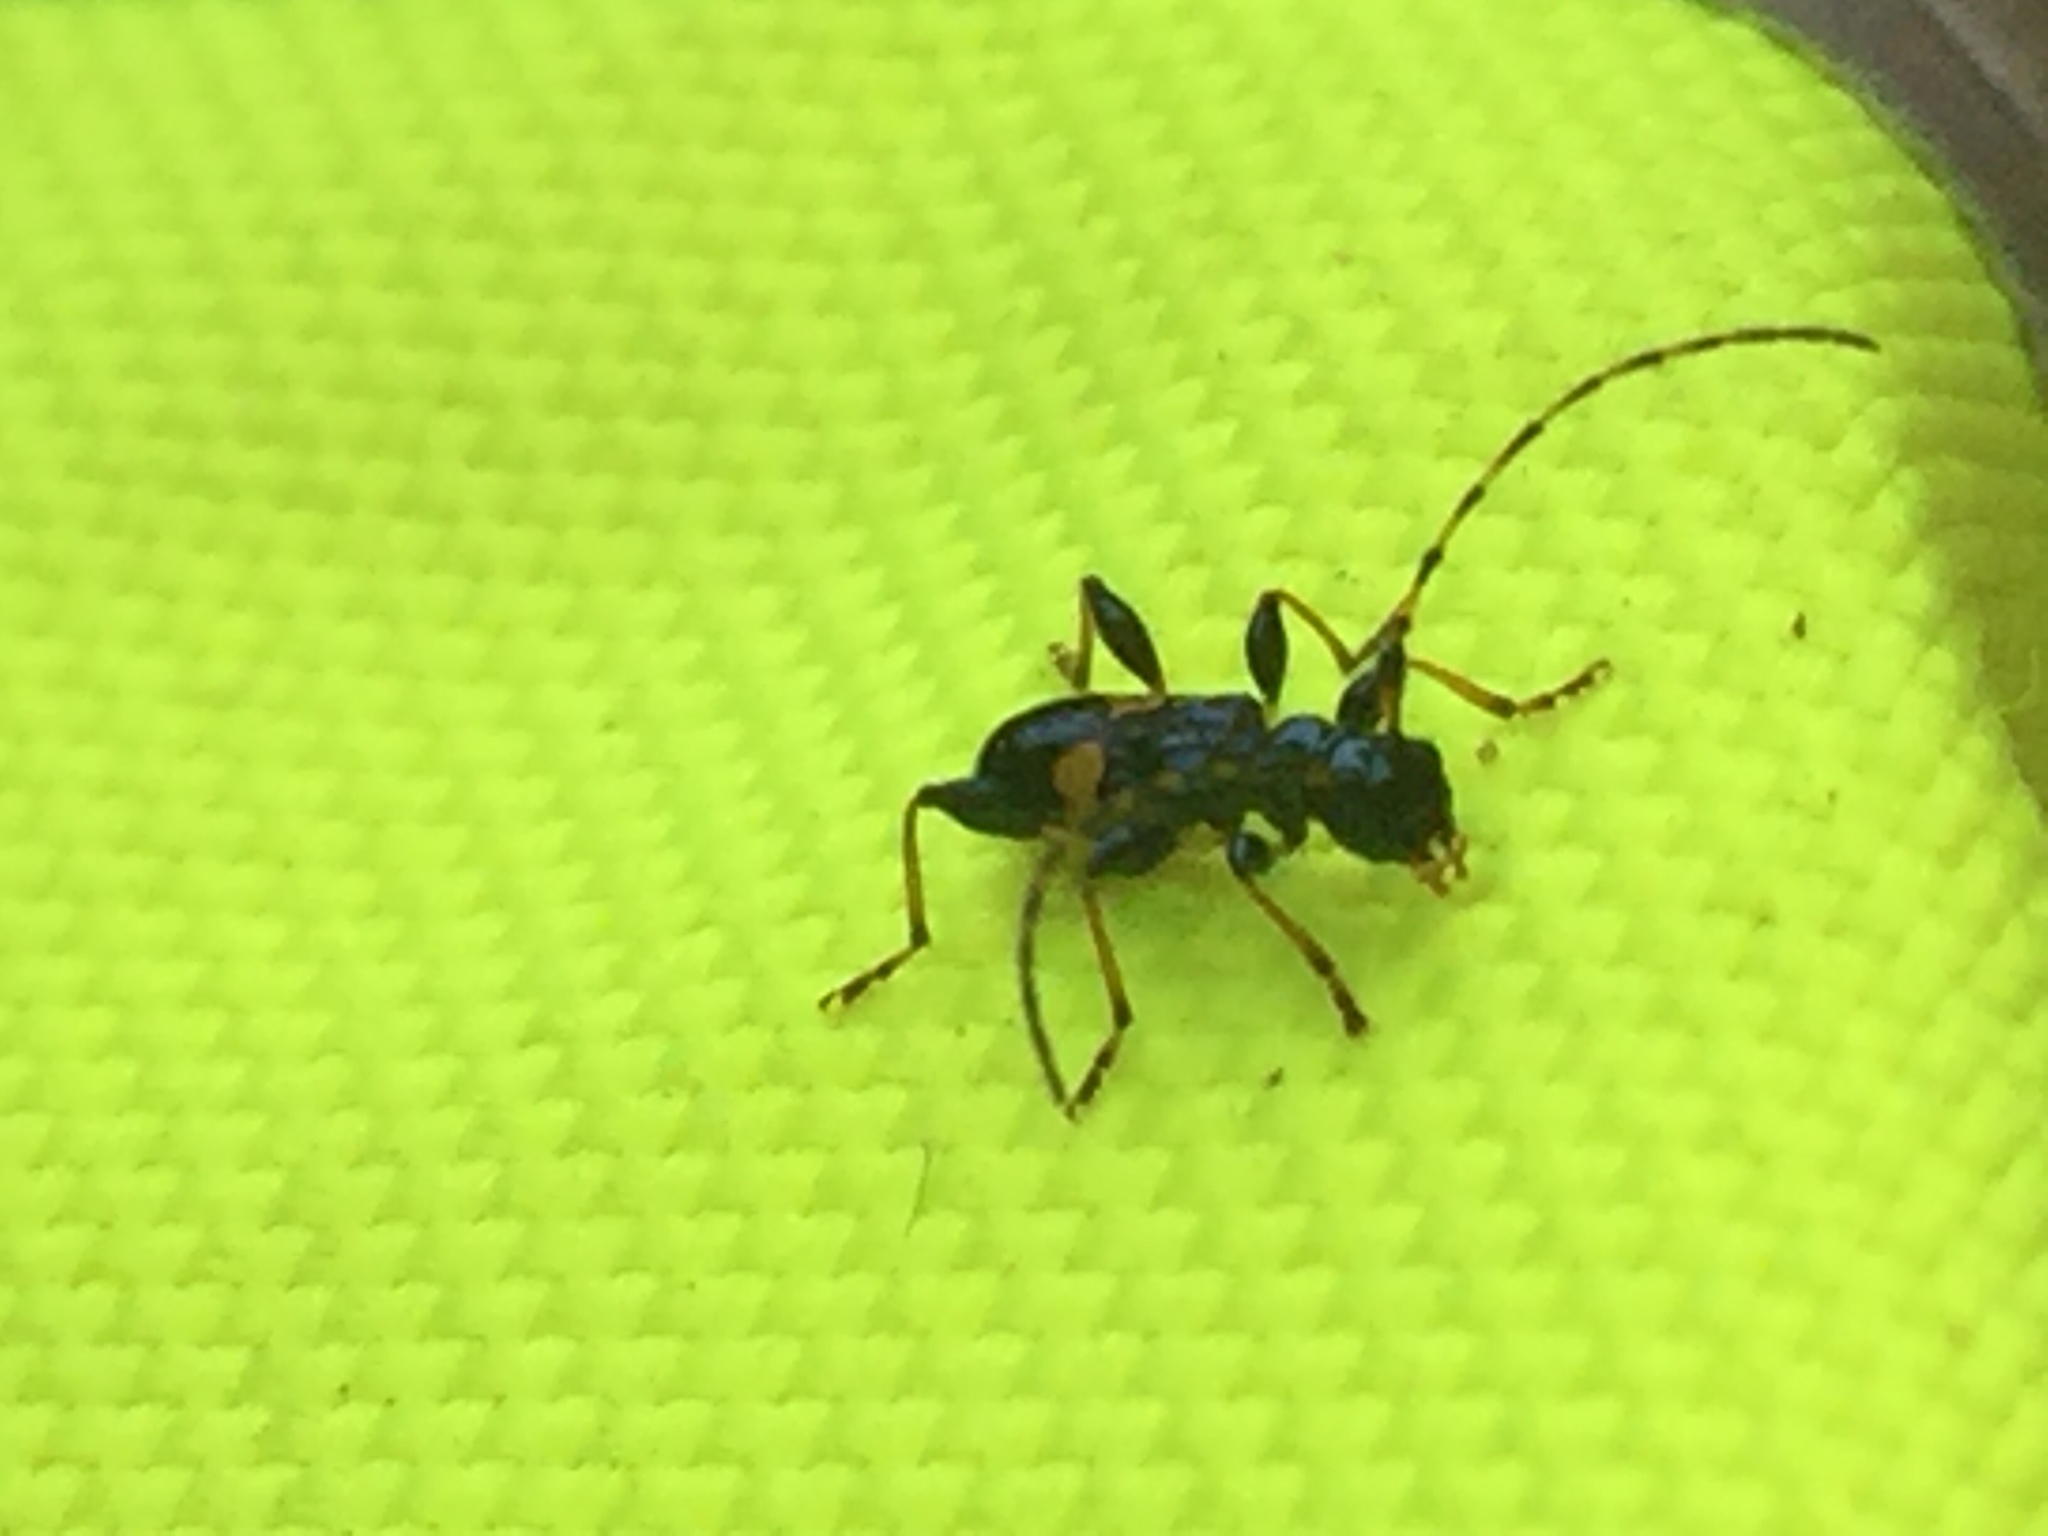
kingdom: Animalia
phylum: Arthropoda
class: Insecta
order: Coleoptera
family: Cerambycidae
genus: Zorion
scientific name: Zorion guttigerum
